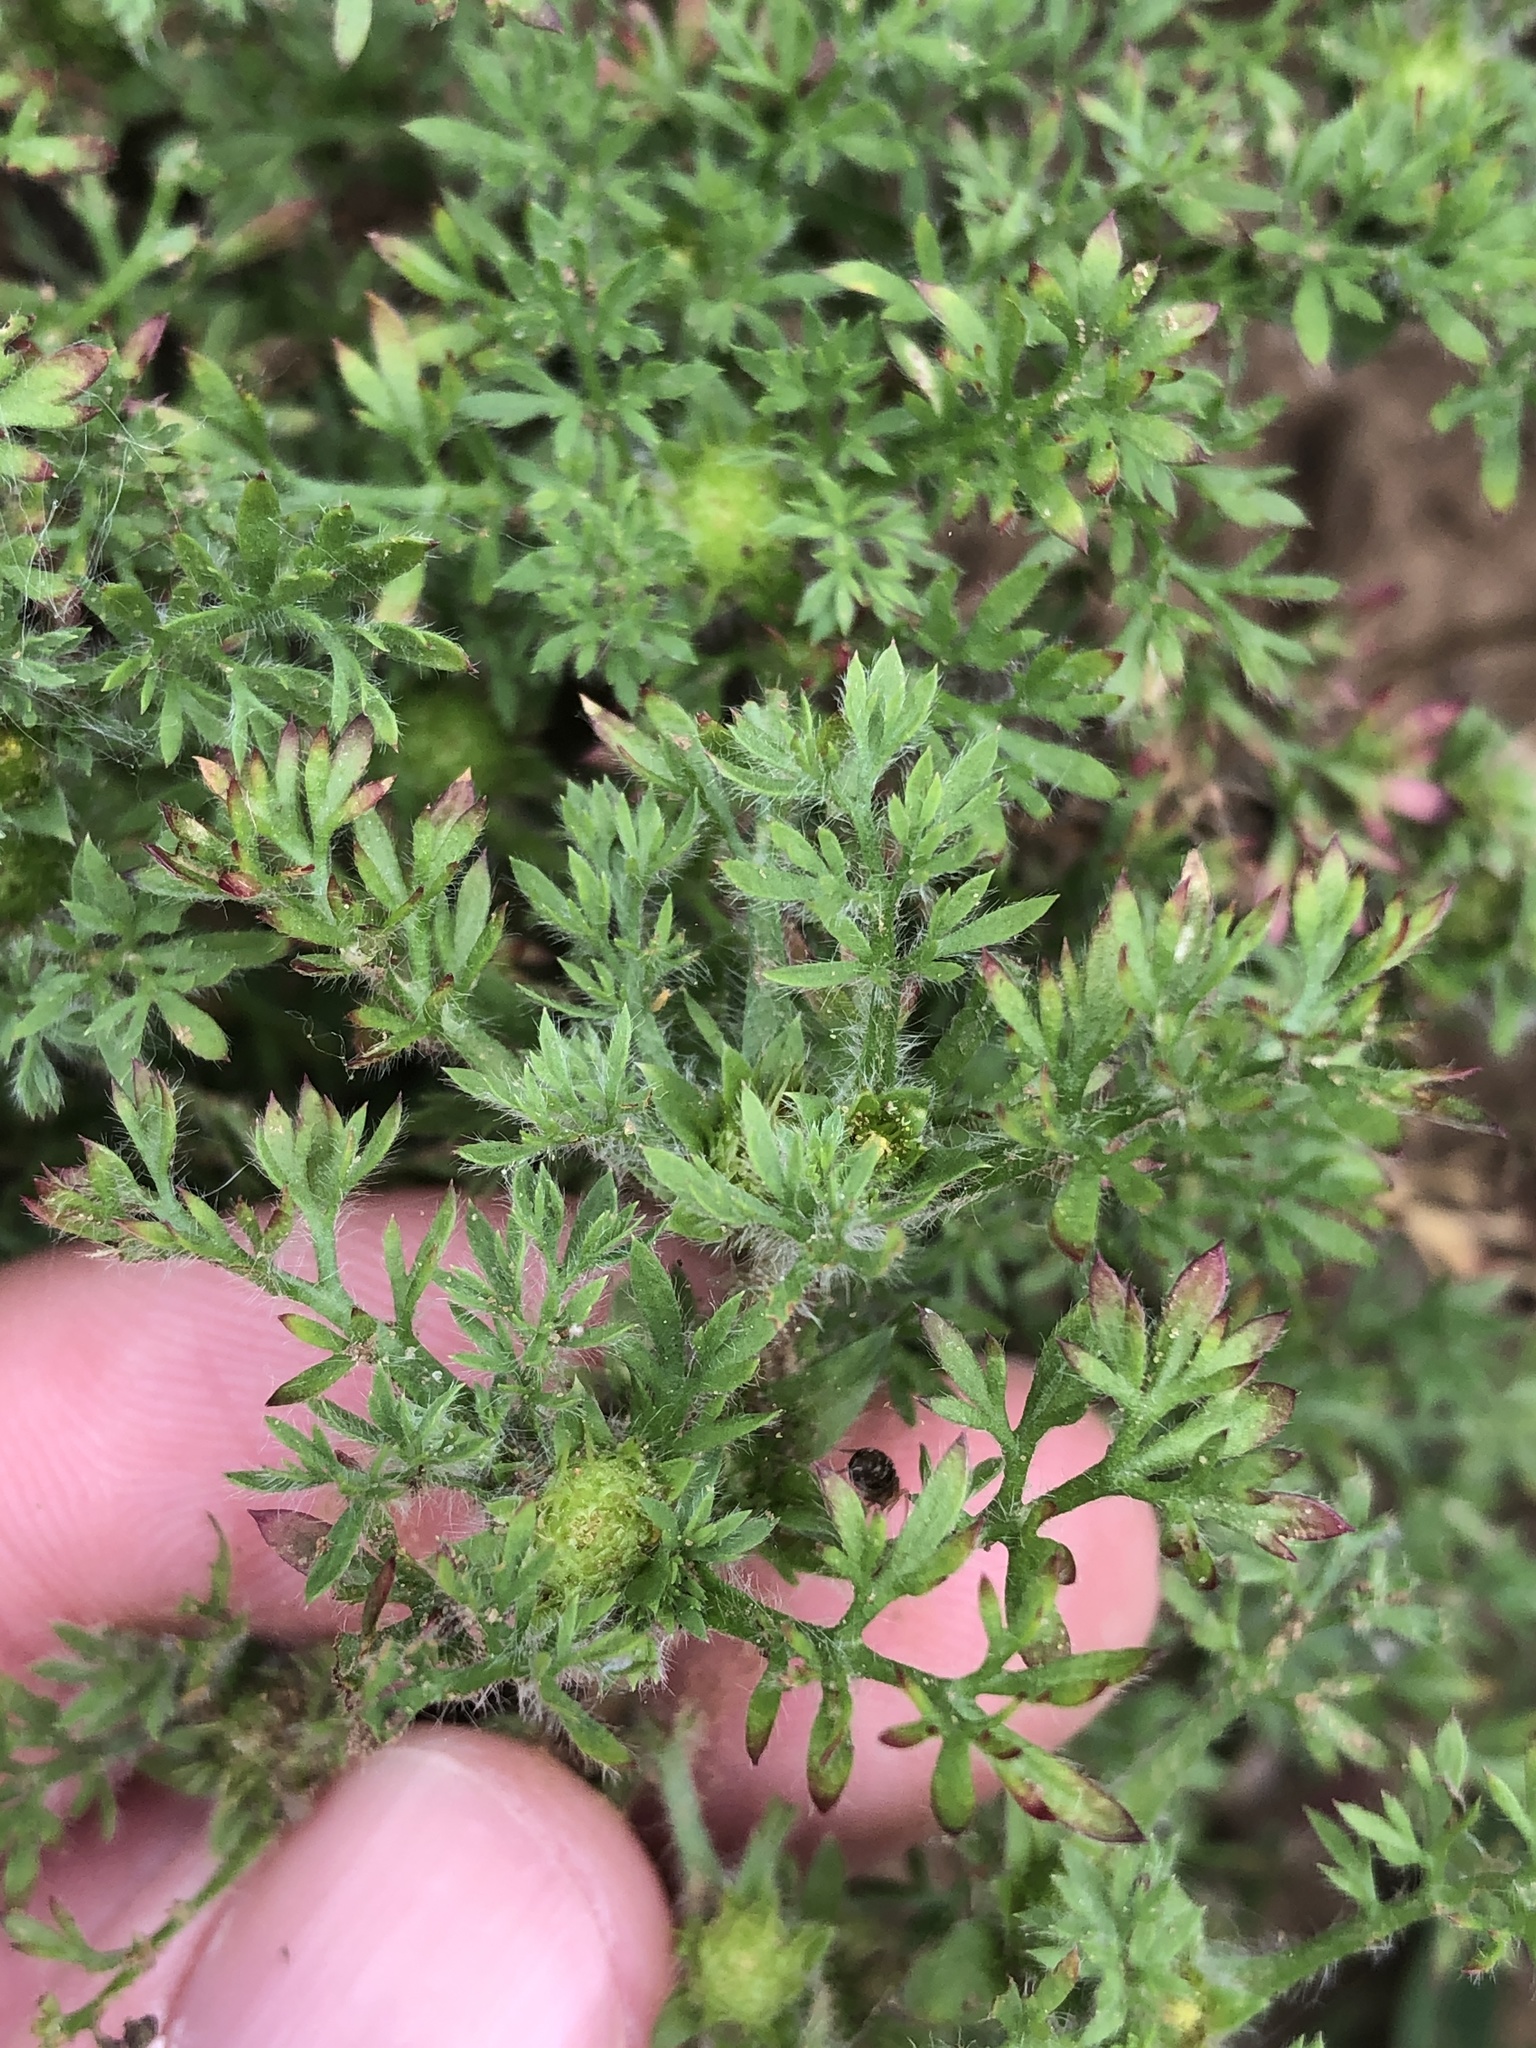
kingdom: Plantae
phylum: Tracheophyta
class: Magnoliopsida
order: Asterales
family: Asteraceae
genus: Soliva
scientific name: Soliva sessilis
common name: Field burrweed
